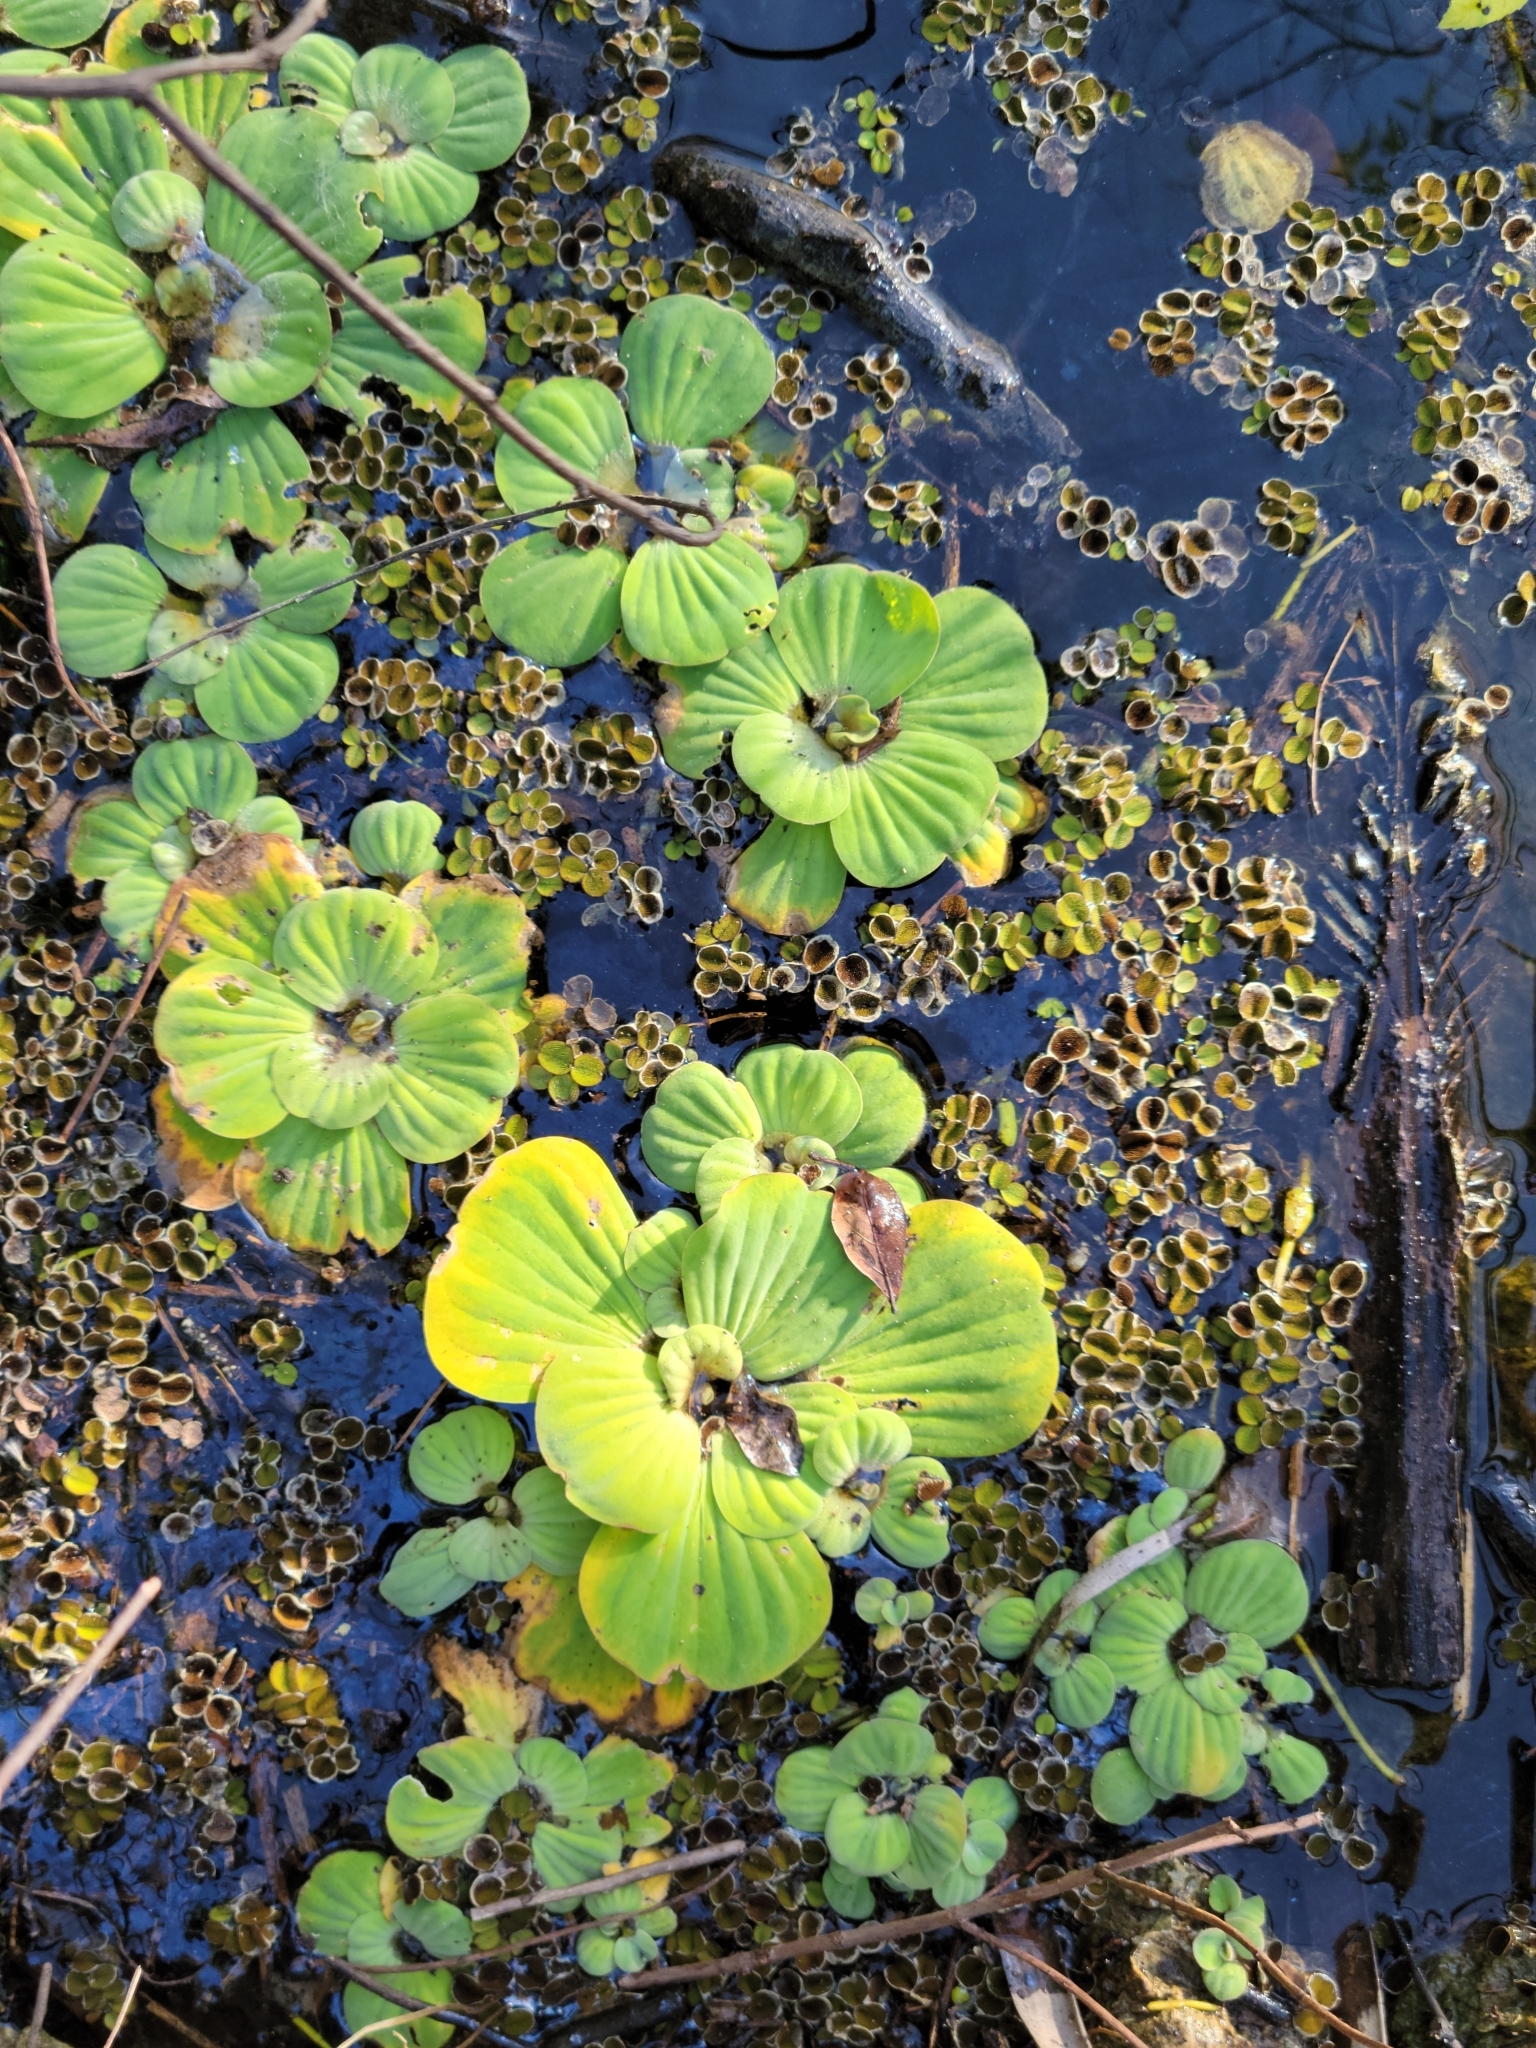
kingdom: Plantae
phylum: Tracheophyta
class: Liliopsida
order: Alismatales
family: Araceae
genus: Pistia
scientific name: Pistia stratiotes
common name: Water lettuce
